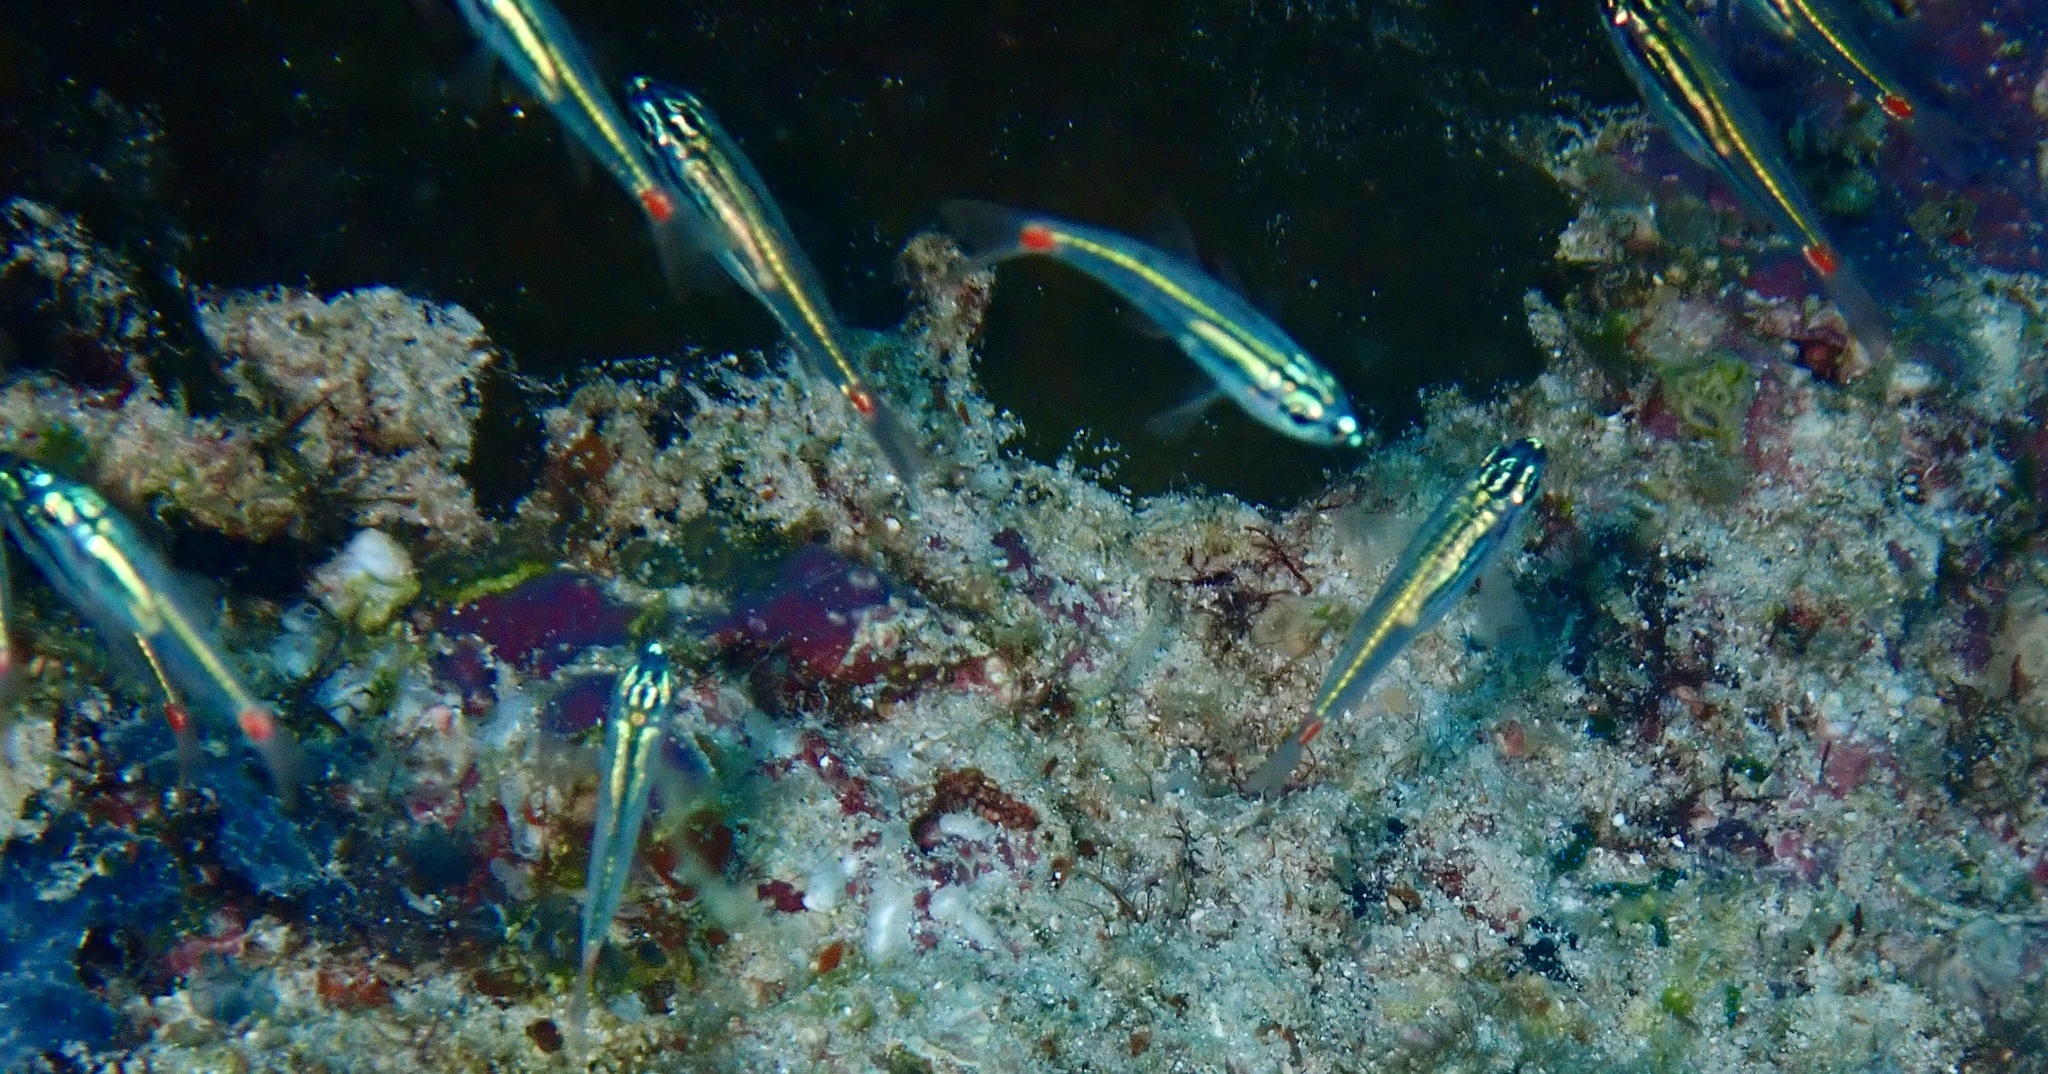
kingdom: Animalia
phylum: Chordata
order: Perciformes
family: Apogonidae
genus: Ostorhinchus
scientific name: Ostorhinchus parvulus
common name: Red-spot cardinalfish
